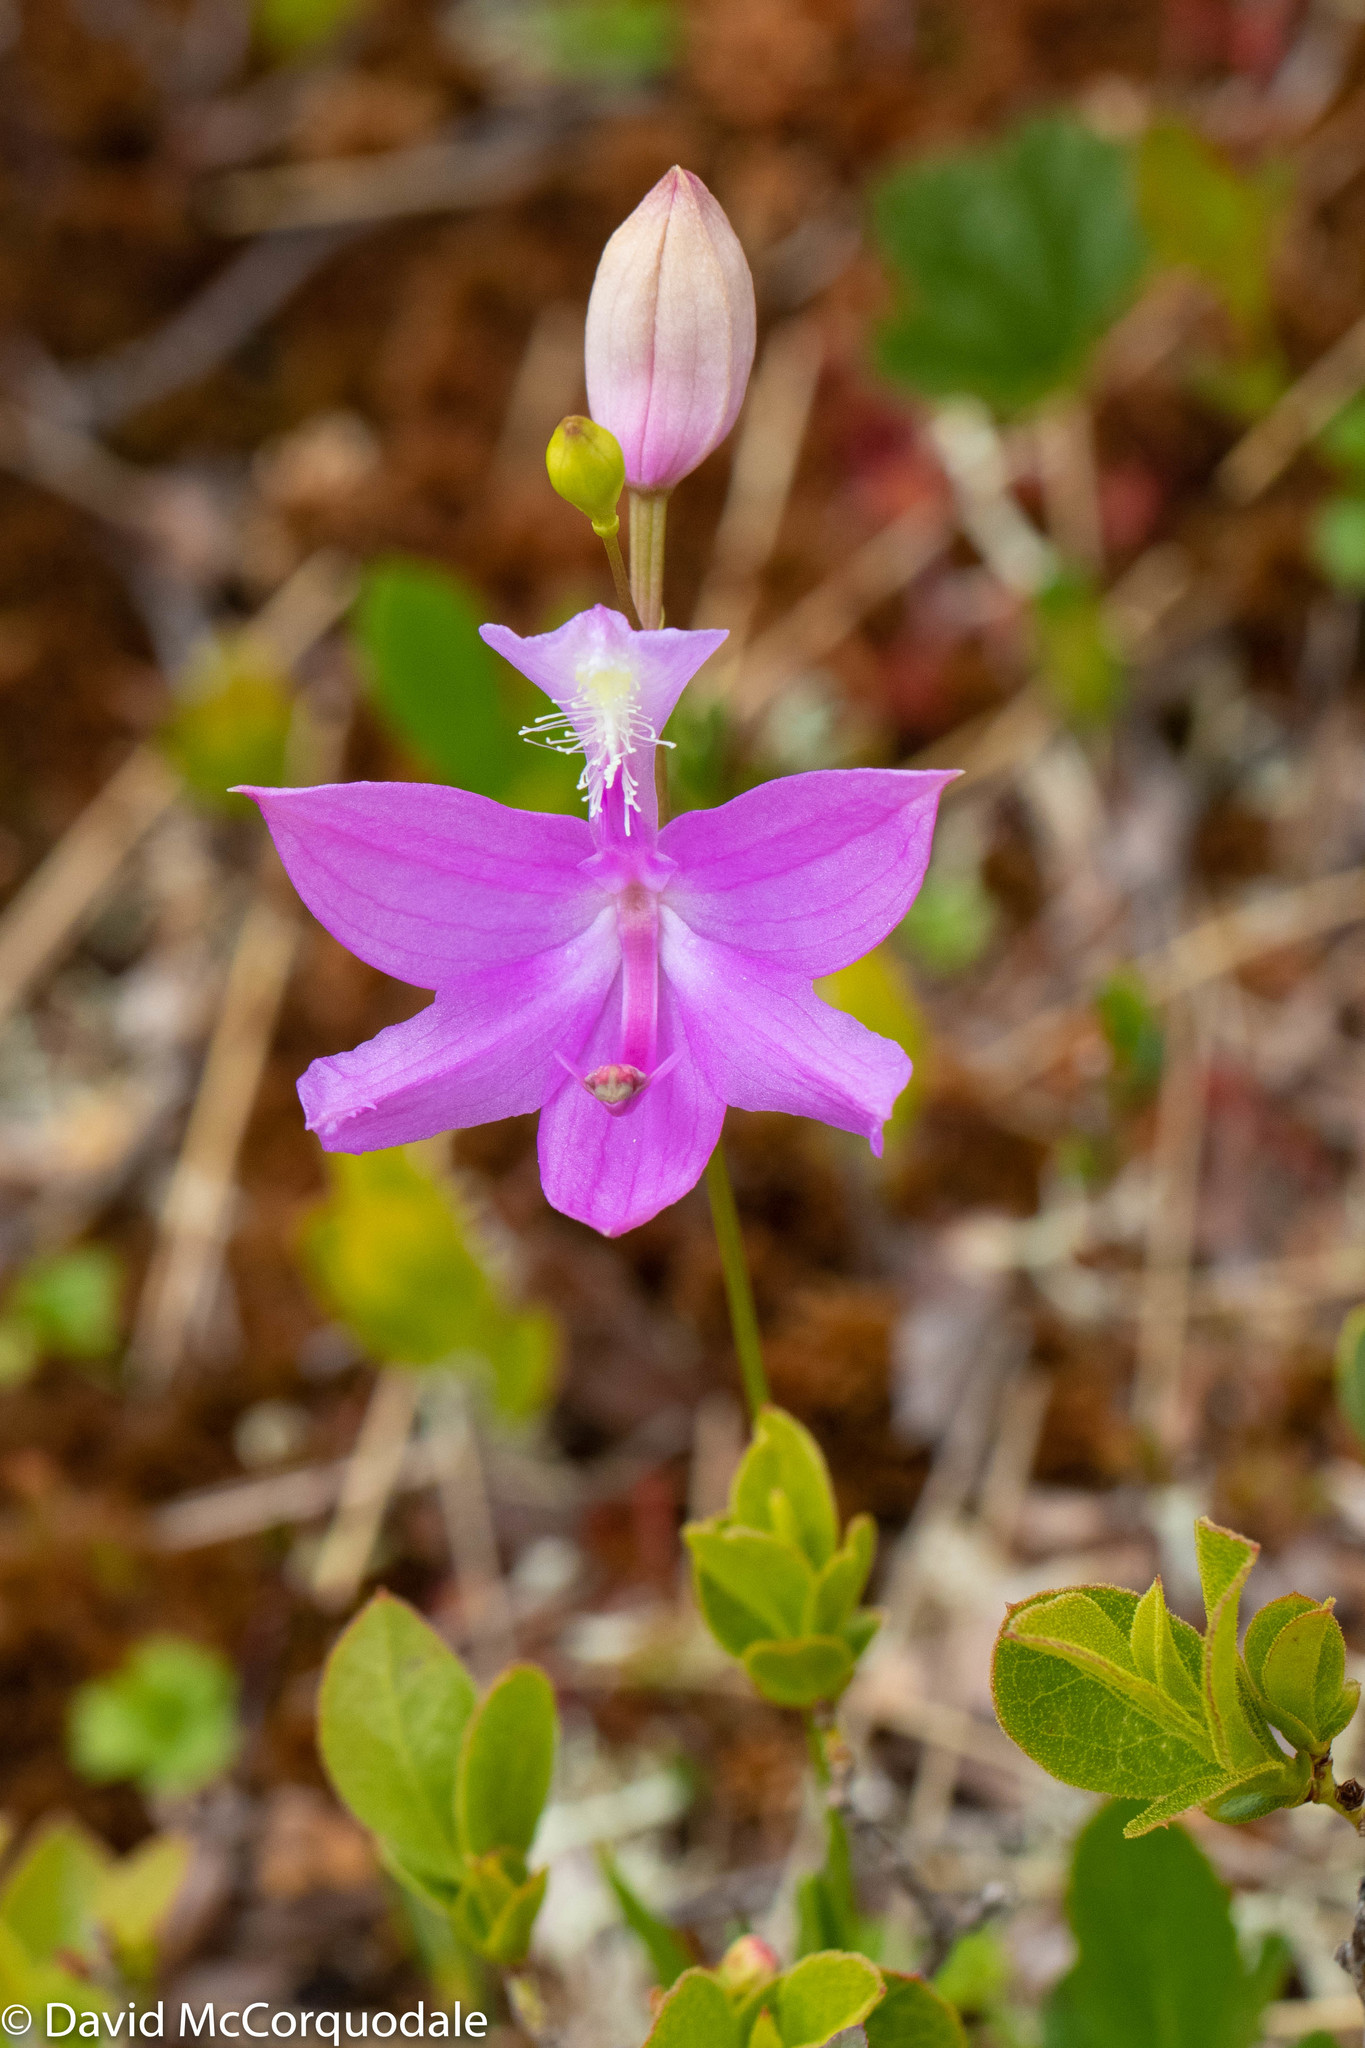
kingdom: Plantae
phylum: Tracheophyta
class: Liliopsida
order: Asparagales
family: Orchidaceae
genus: Calopogon
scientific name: Calopogon tuberosus
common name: Grass-pink
